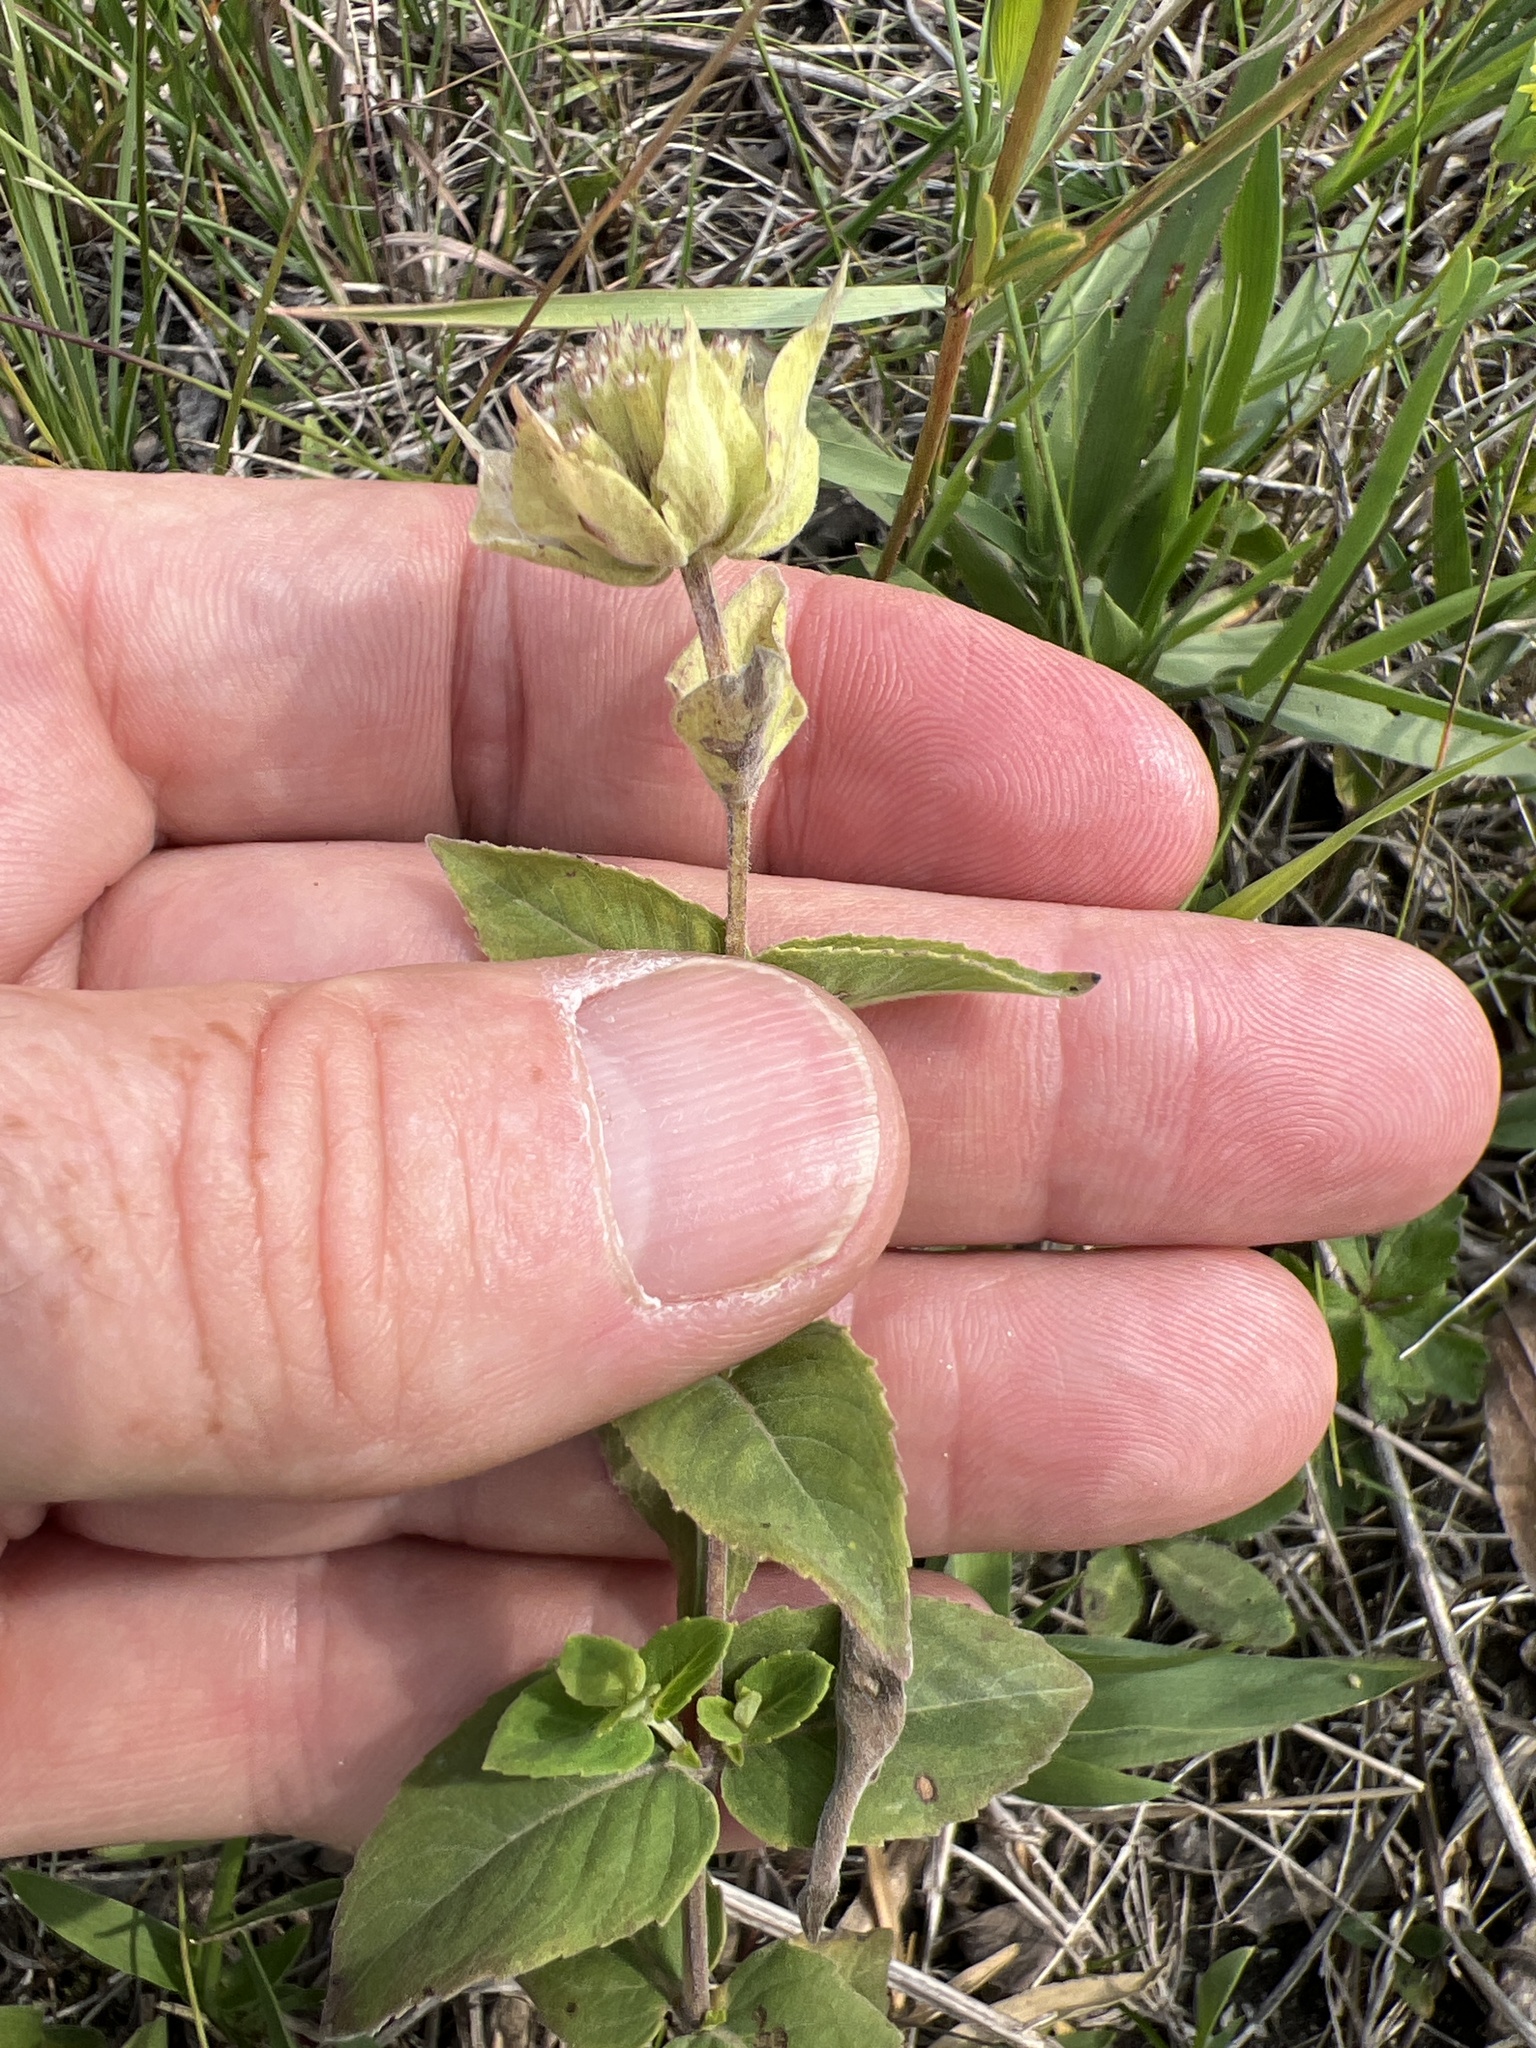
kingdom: Plantae
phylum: Tracheophyta
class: Magnoliopsida
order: Lamiales
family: Lamiaceae
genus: Monarda
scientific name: Monarda fistulosa
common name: Purple beebalm
